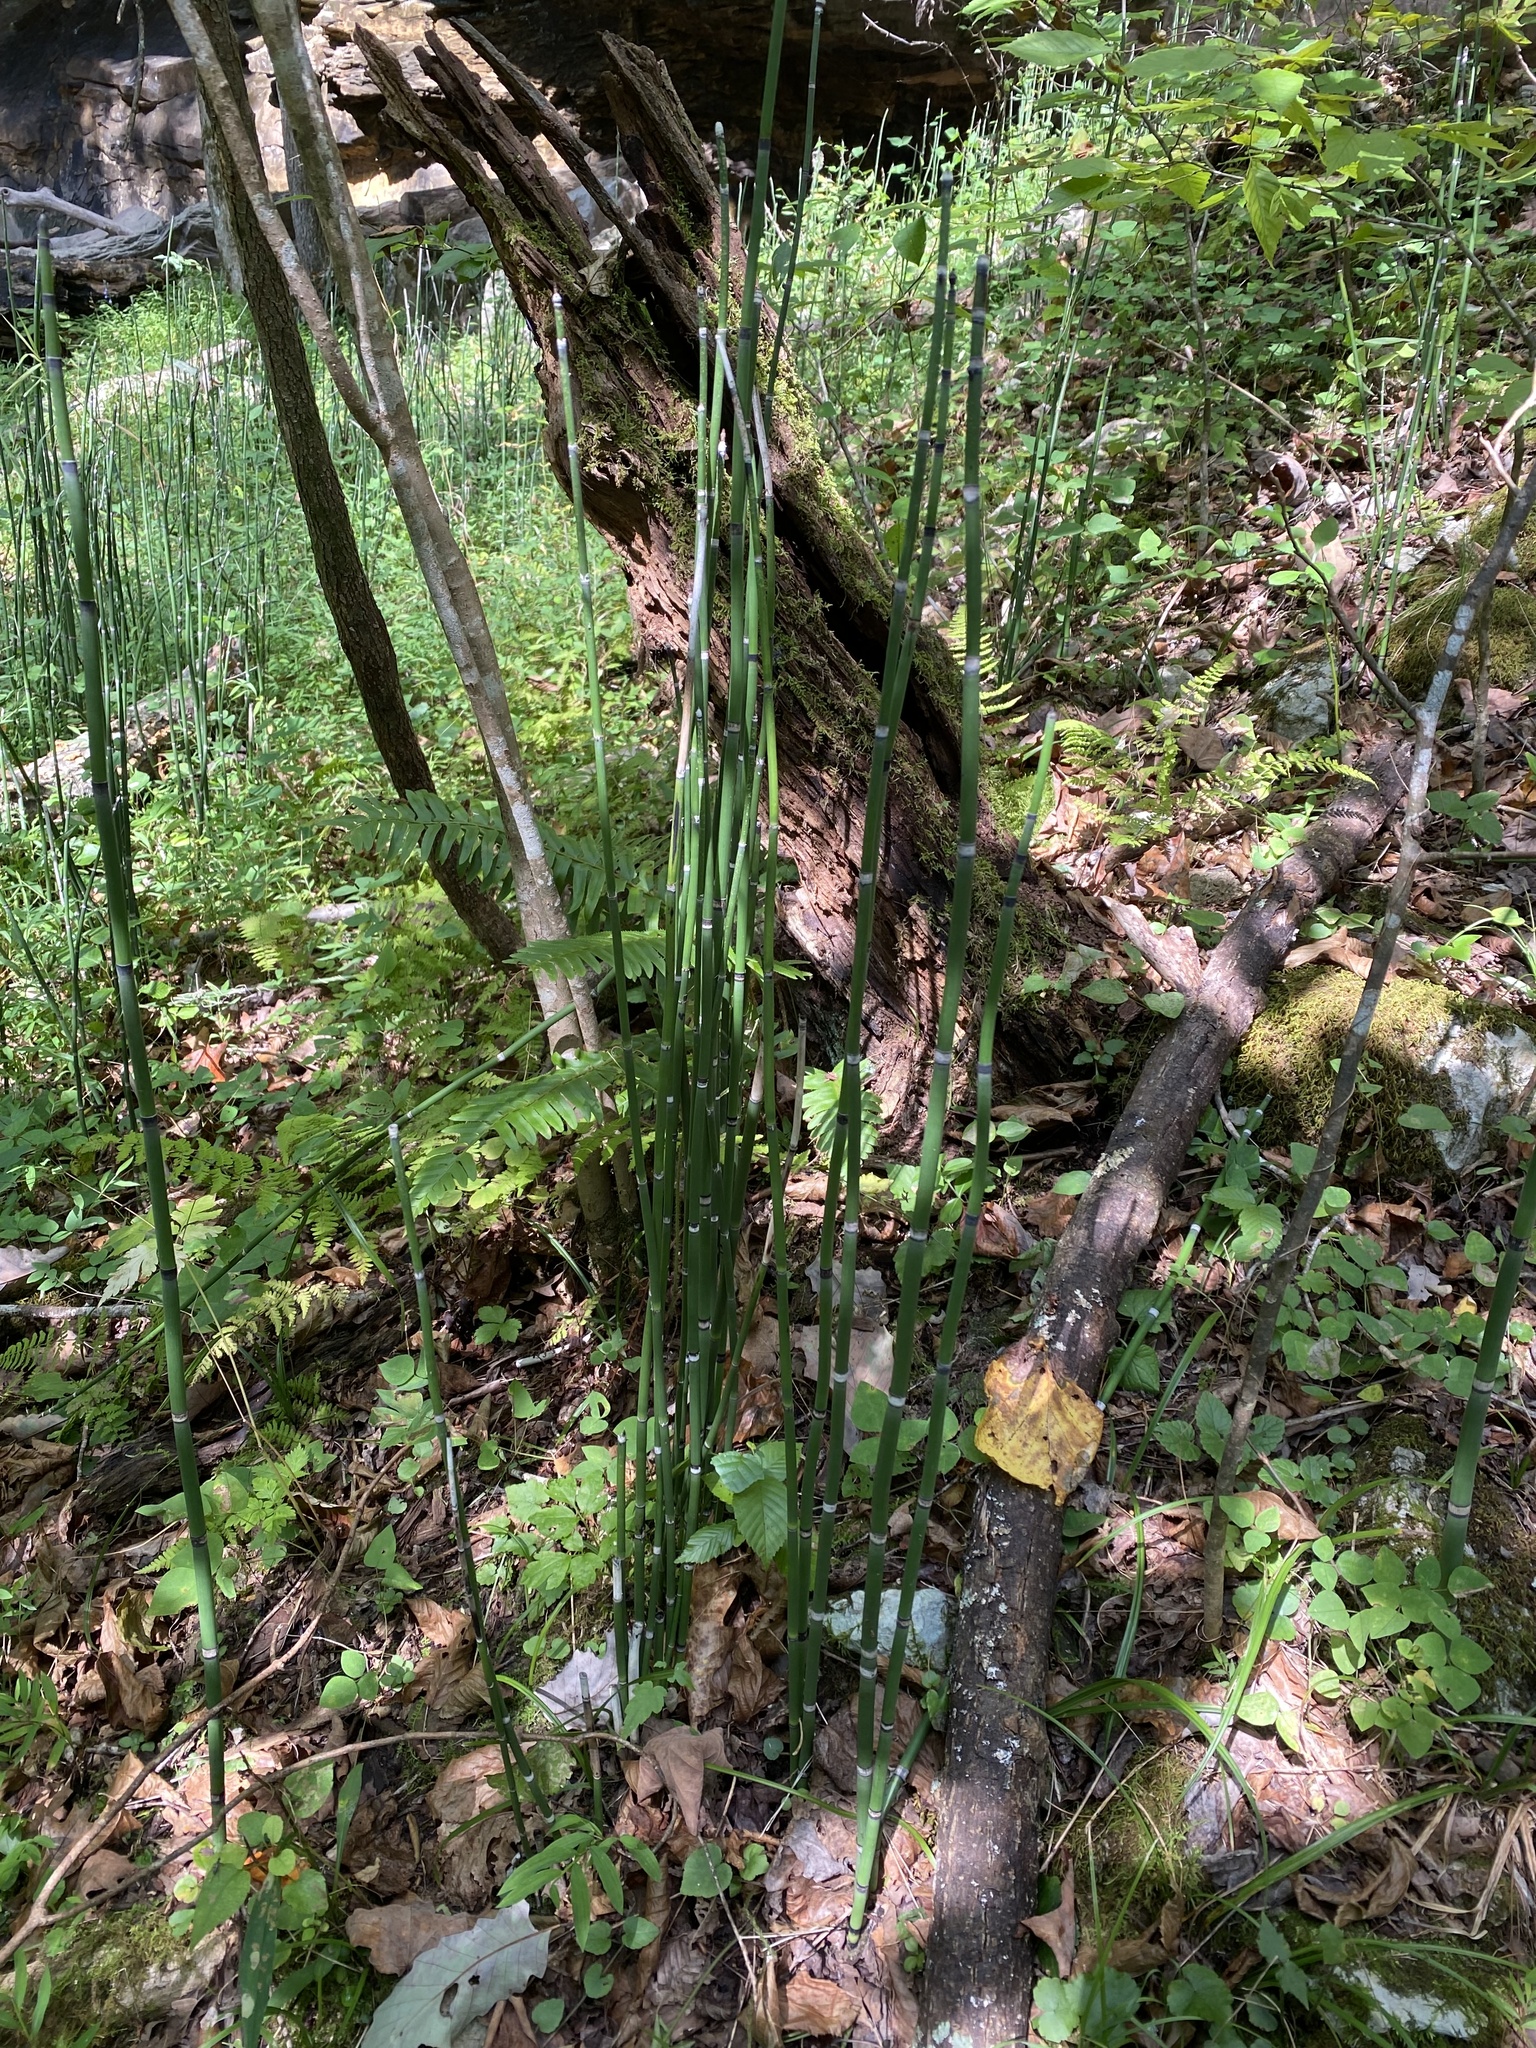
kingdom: Plantae
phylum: Tracheophyta
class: Polypodiopsida
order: Equisetales
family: Equisetaceae
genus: Equisetum
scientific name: Equisetum hyemale
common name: Rough horsetail
